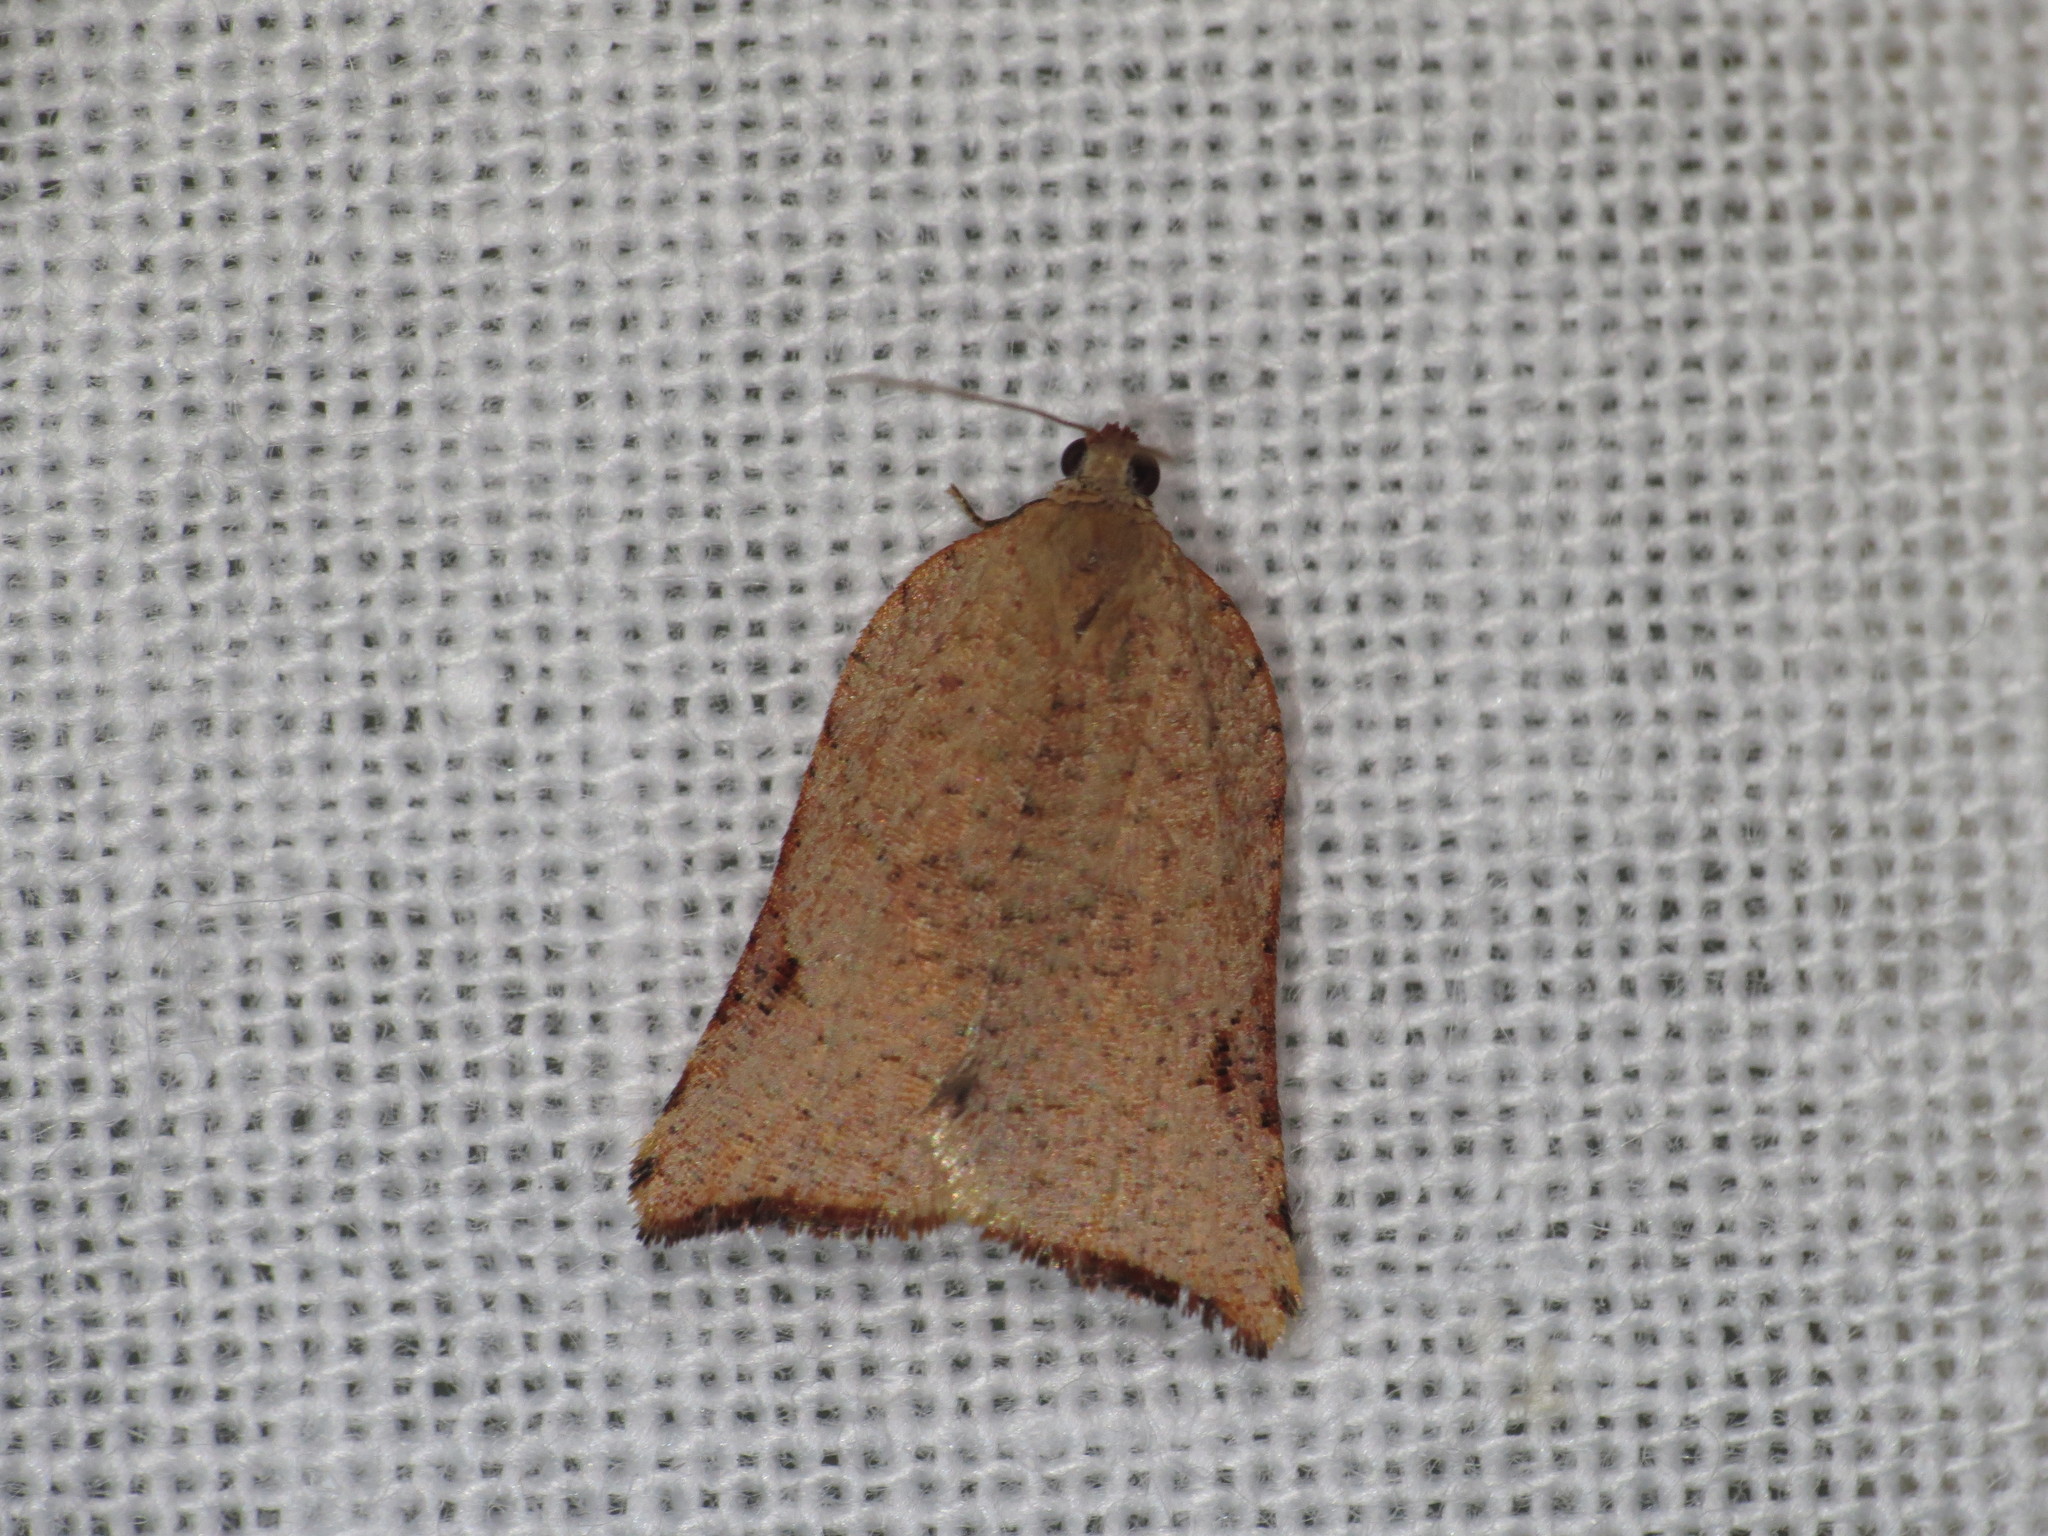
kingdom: Animalia
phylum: Arthropoda
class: Insecta
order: Lepidoptera
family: Tortricidae
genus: Anisogona
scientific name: Anisogona notoplaga
